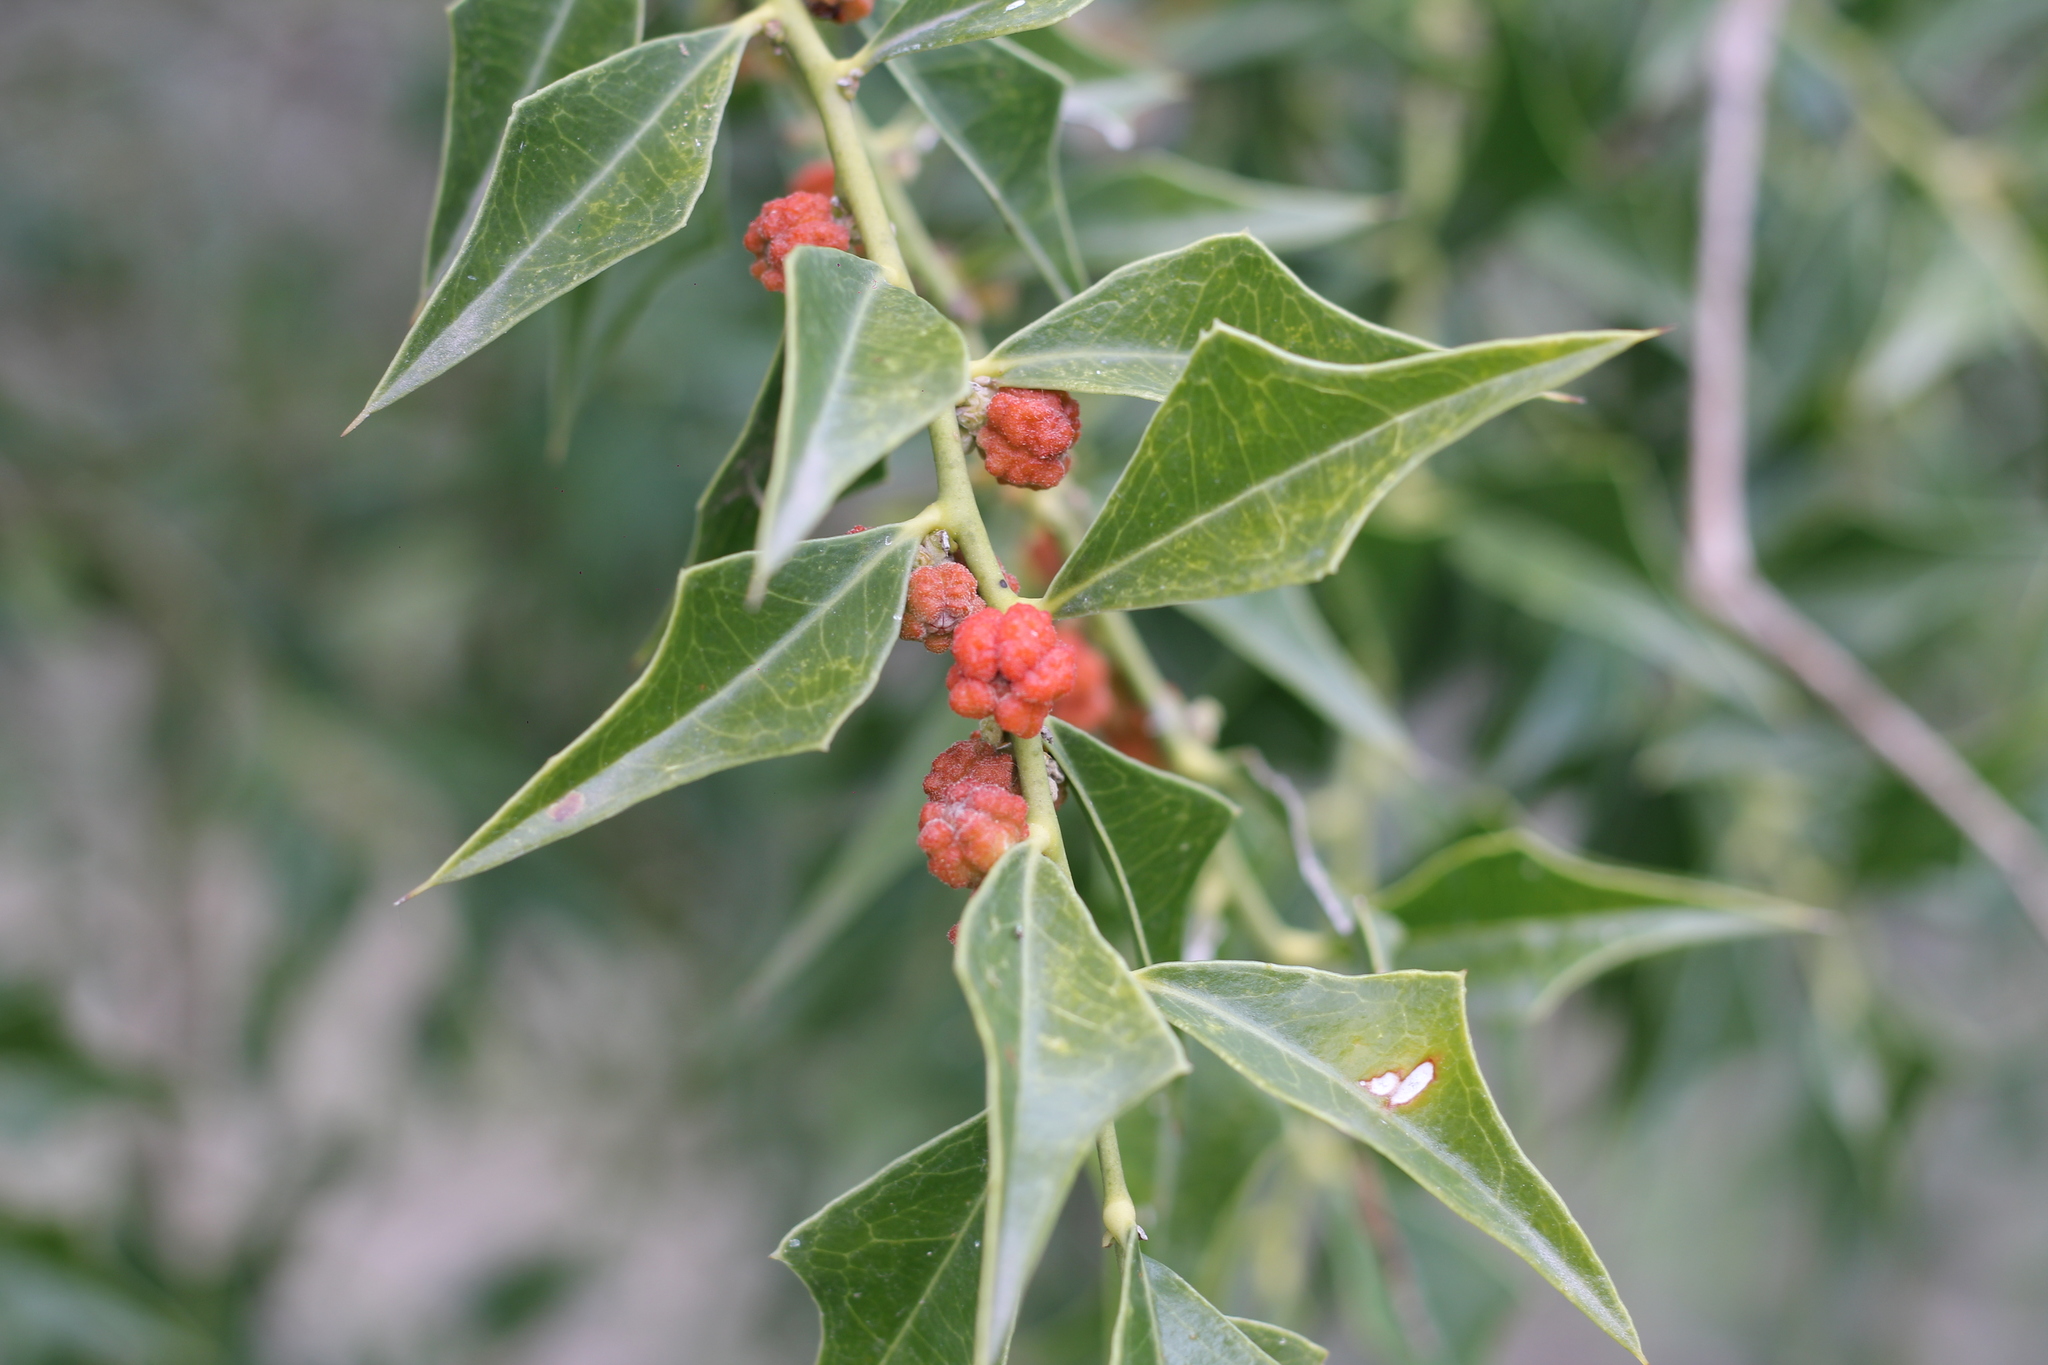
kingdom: Plantae
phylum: Tracheophyta
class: Magnoliopsida
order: Santalales
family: Cervantesiaceae
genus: Jodina
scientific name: Jodina rhombifolia
